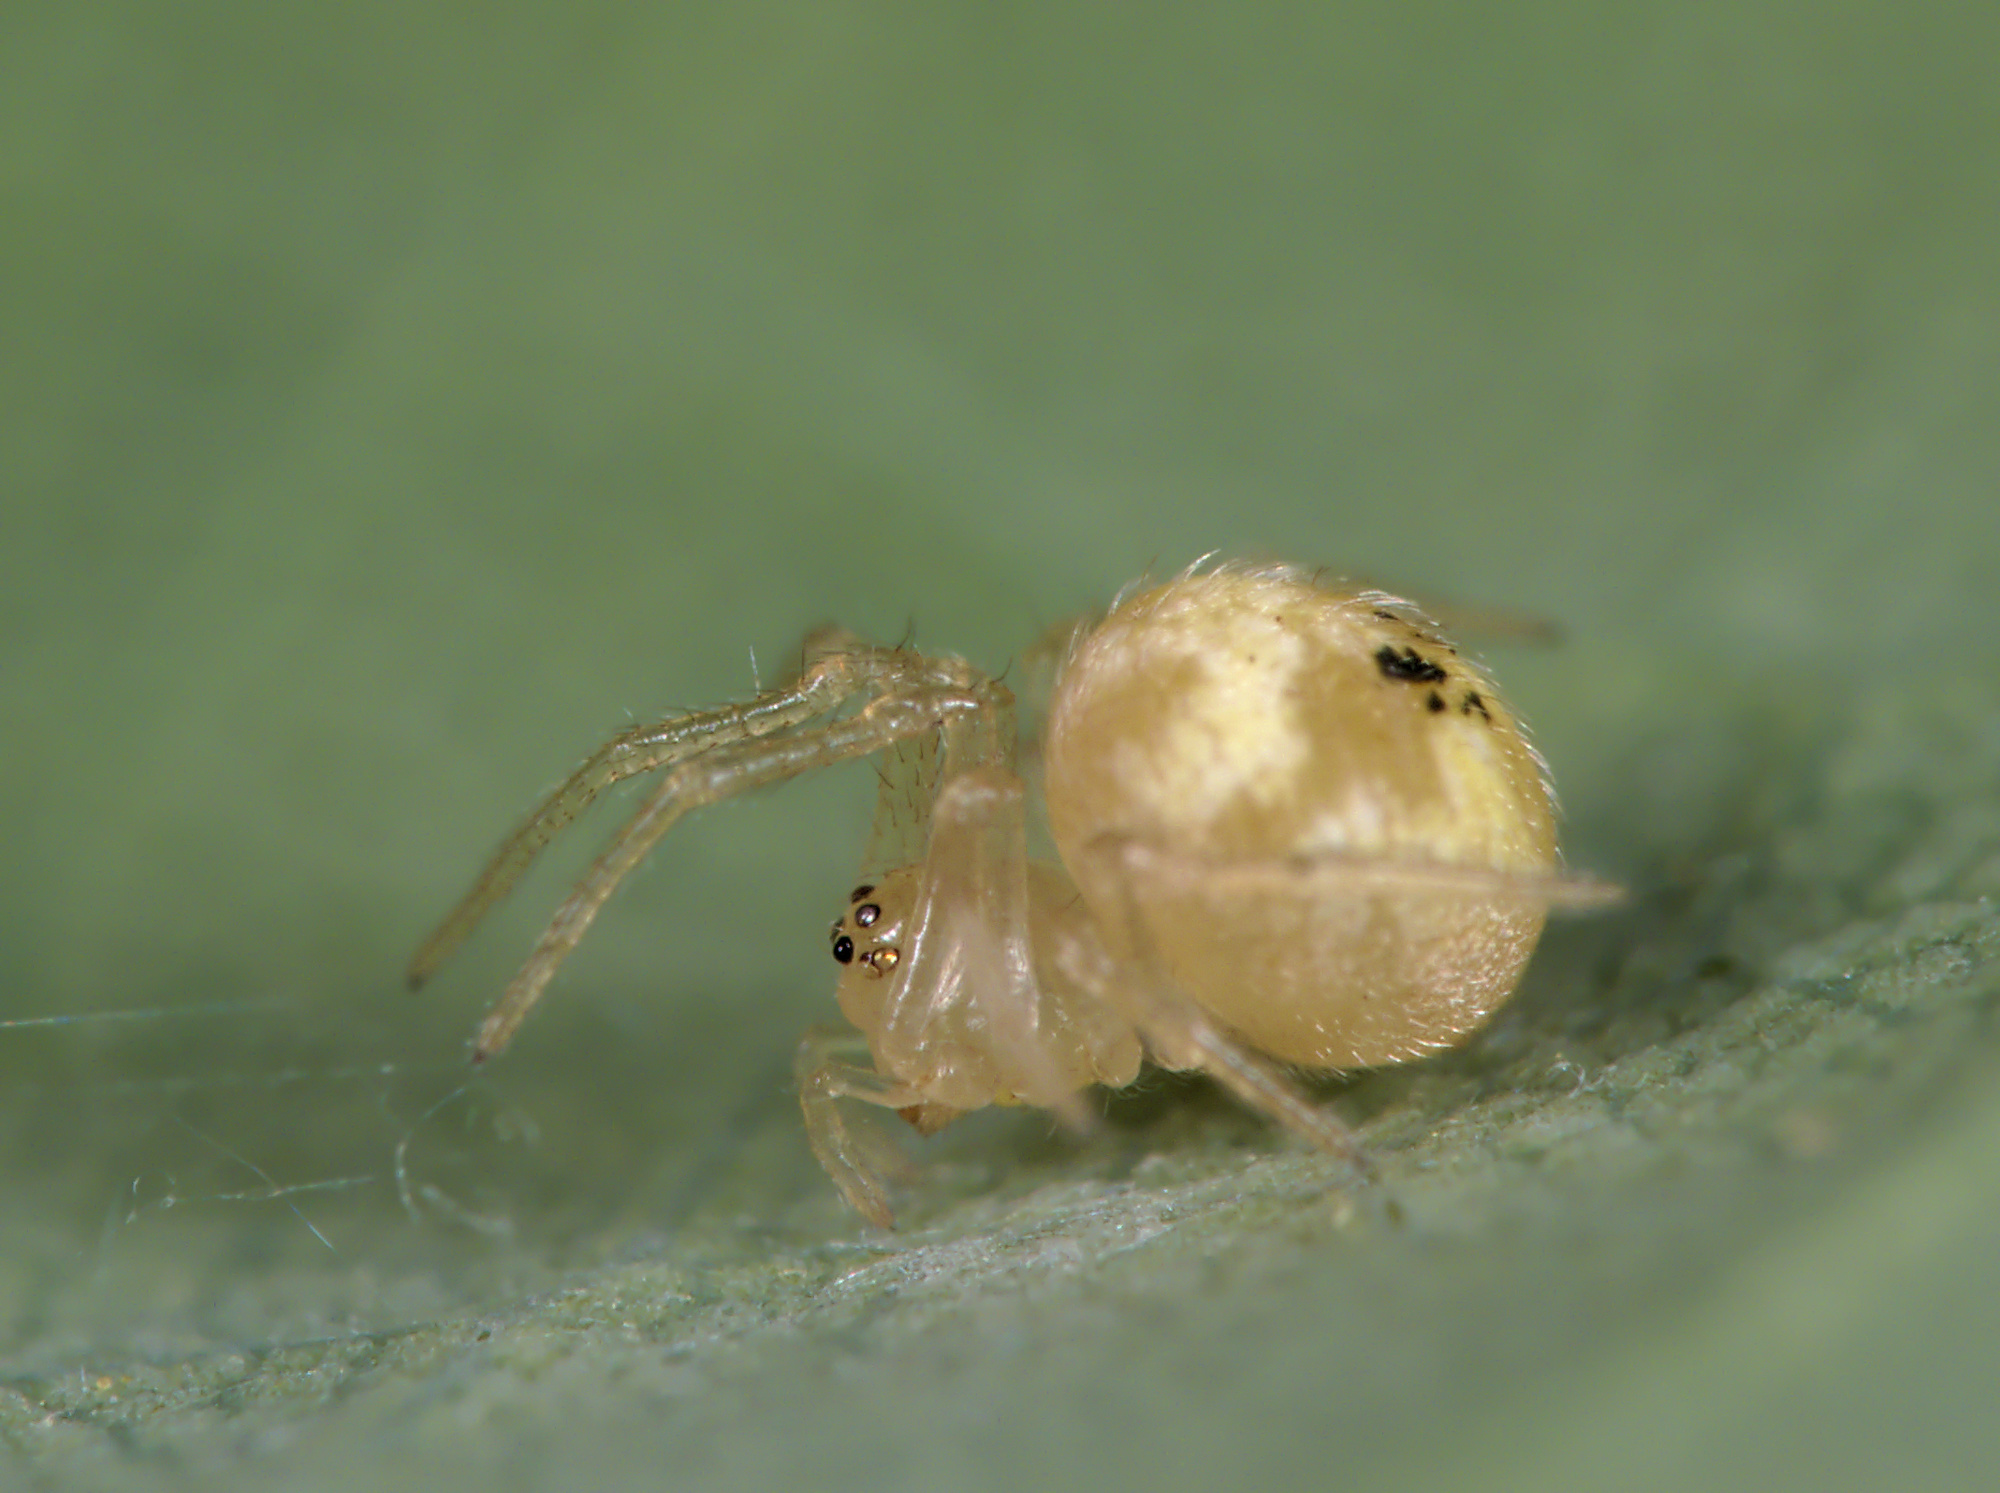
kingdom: Animalia
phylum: Arthropoda
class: Arachnida
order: Araneae
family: Theridiidae
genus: Paidiscura
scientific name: Paidiscura pallens
